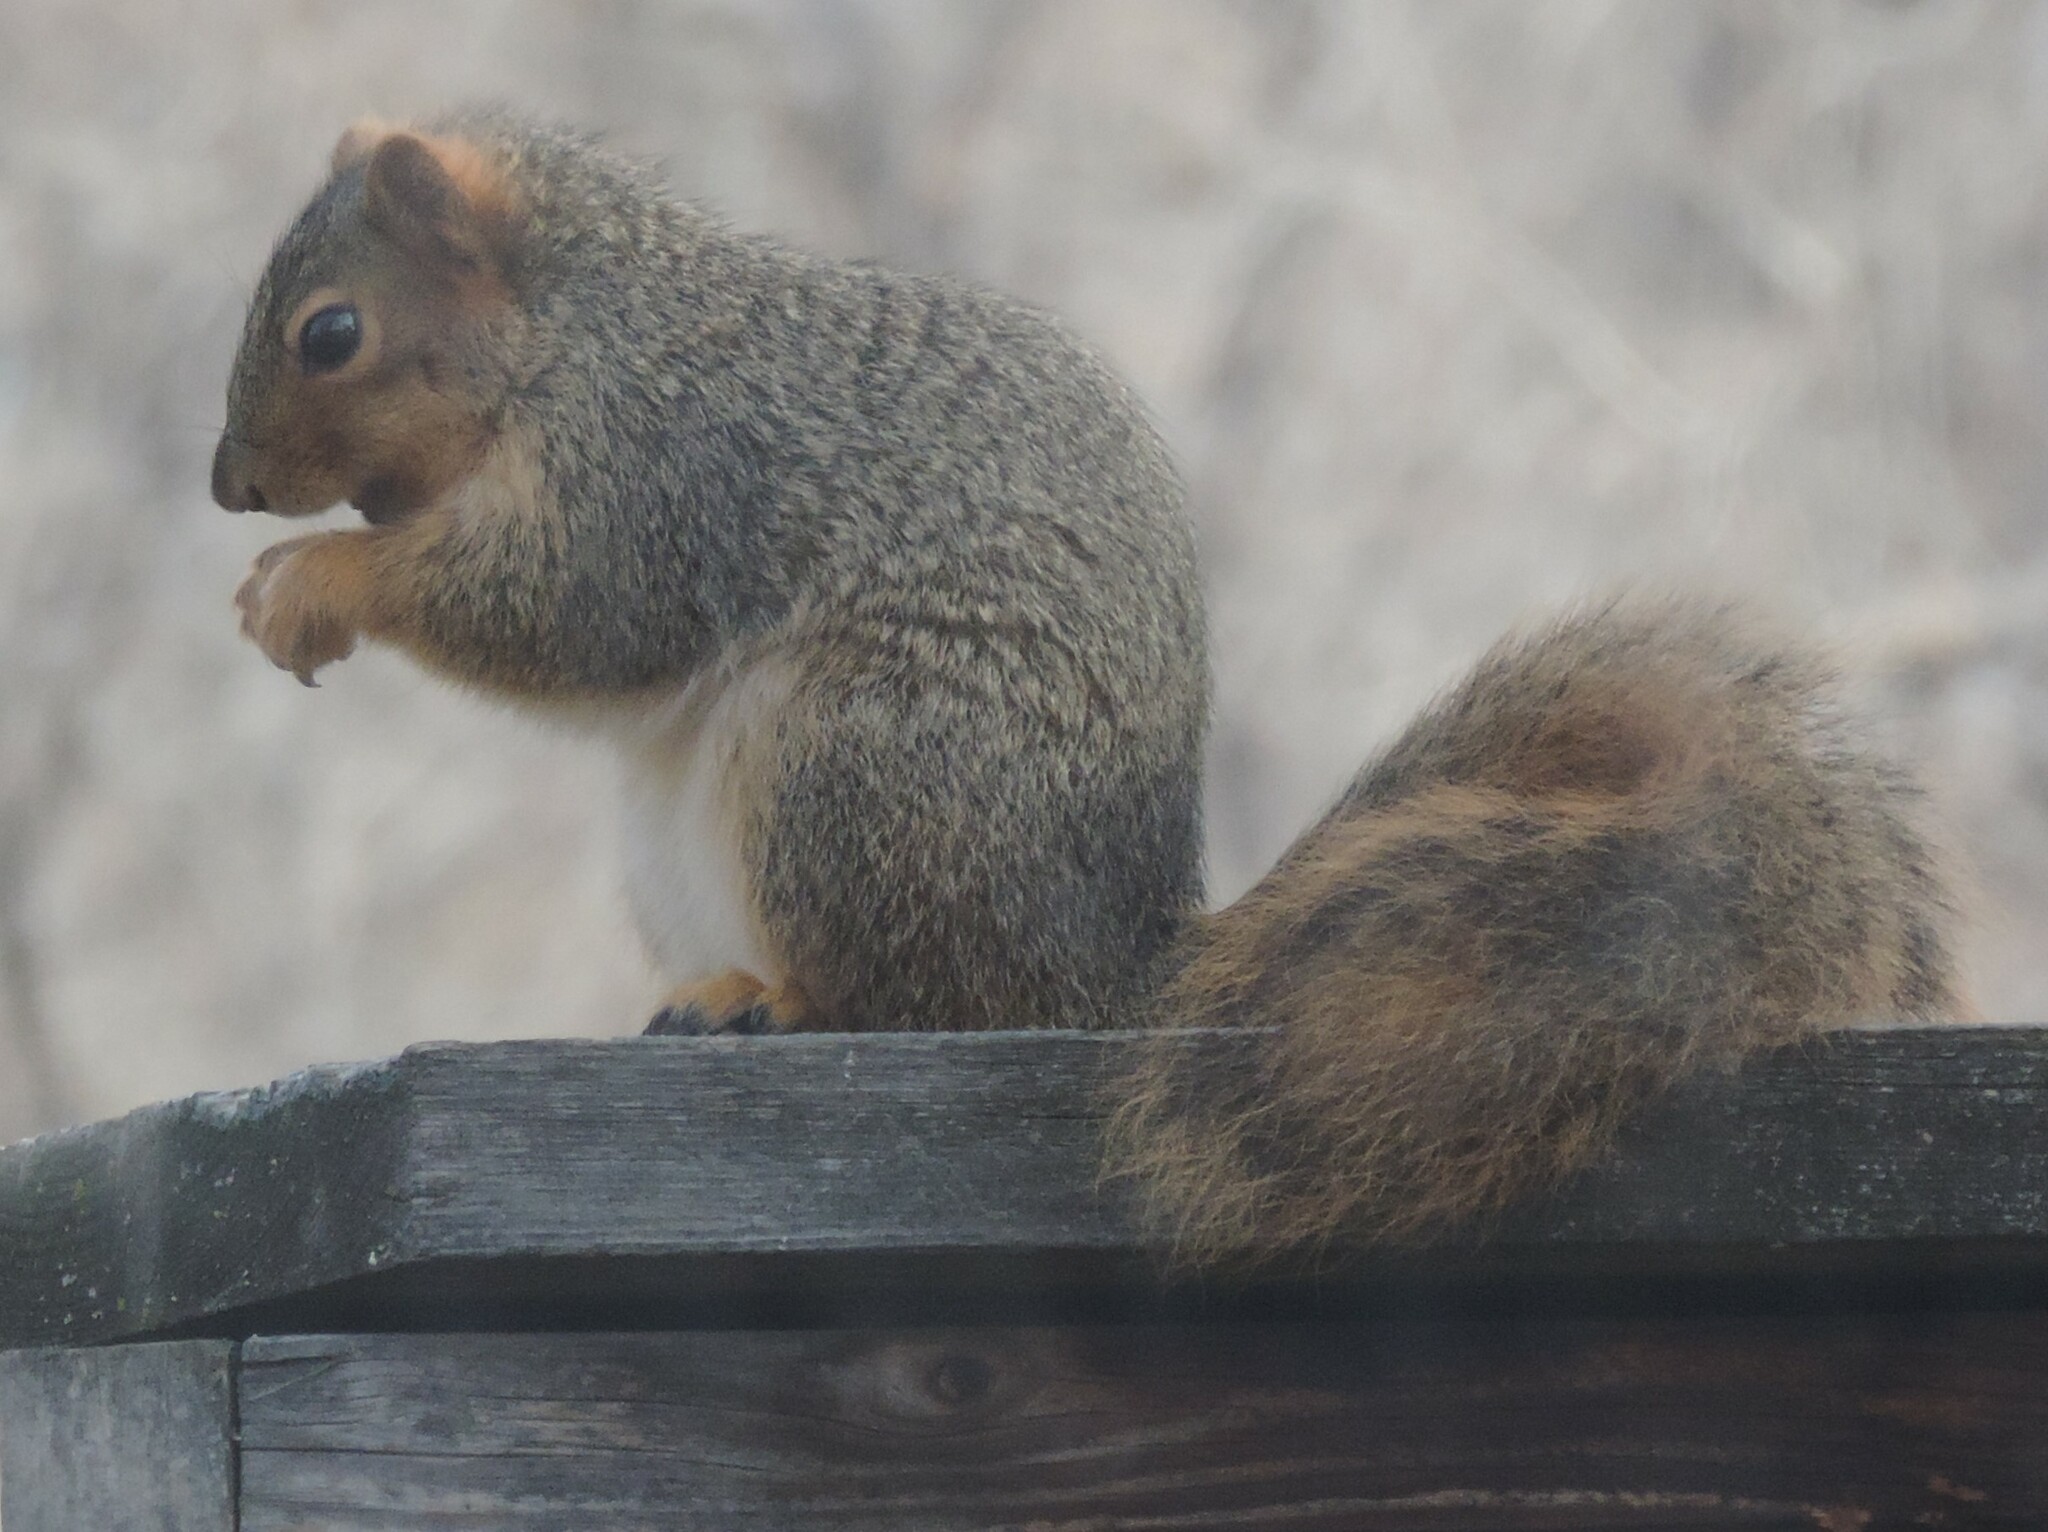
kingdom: Animalia
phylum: Chordata
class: Mammalia
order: Rodentia
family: Sciuridae
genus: Sciurus
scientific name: Sciurus niger
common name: Fox squirrel
